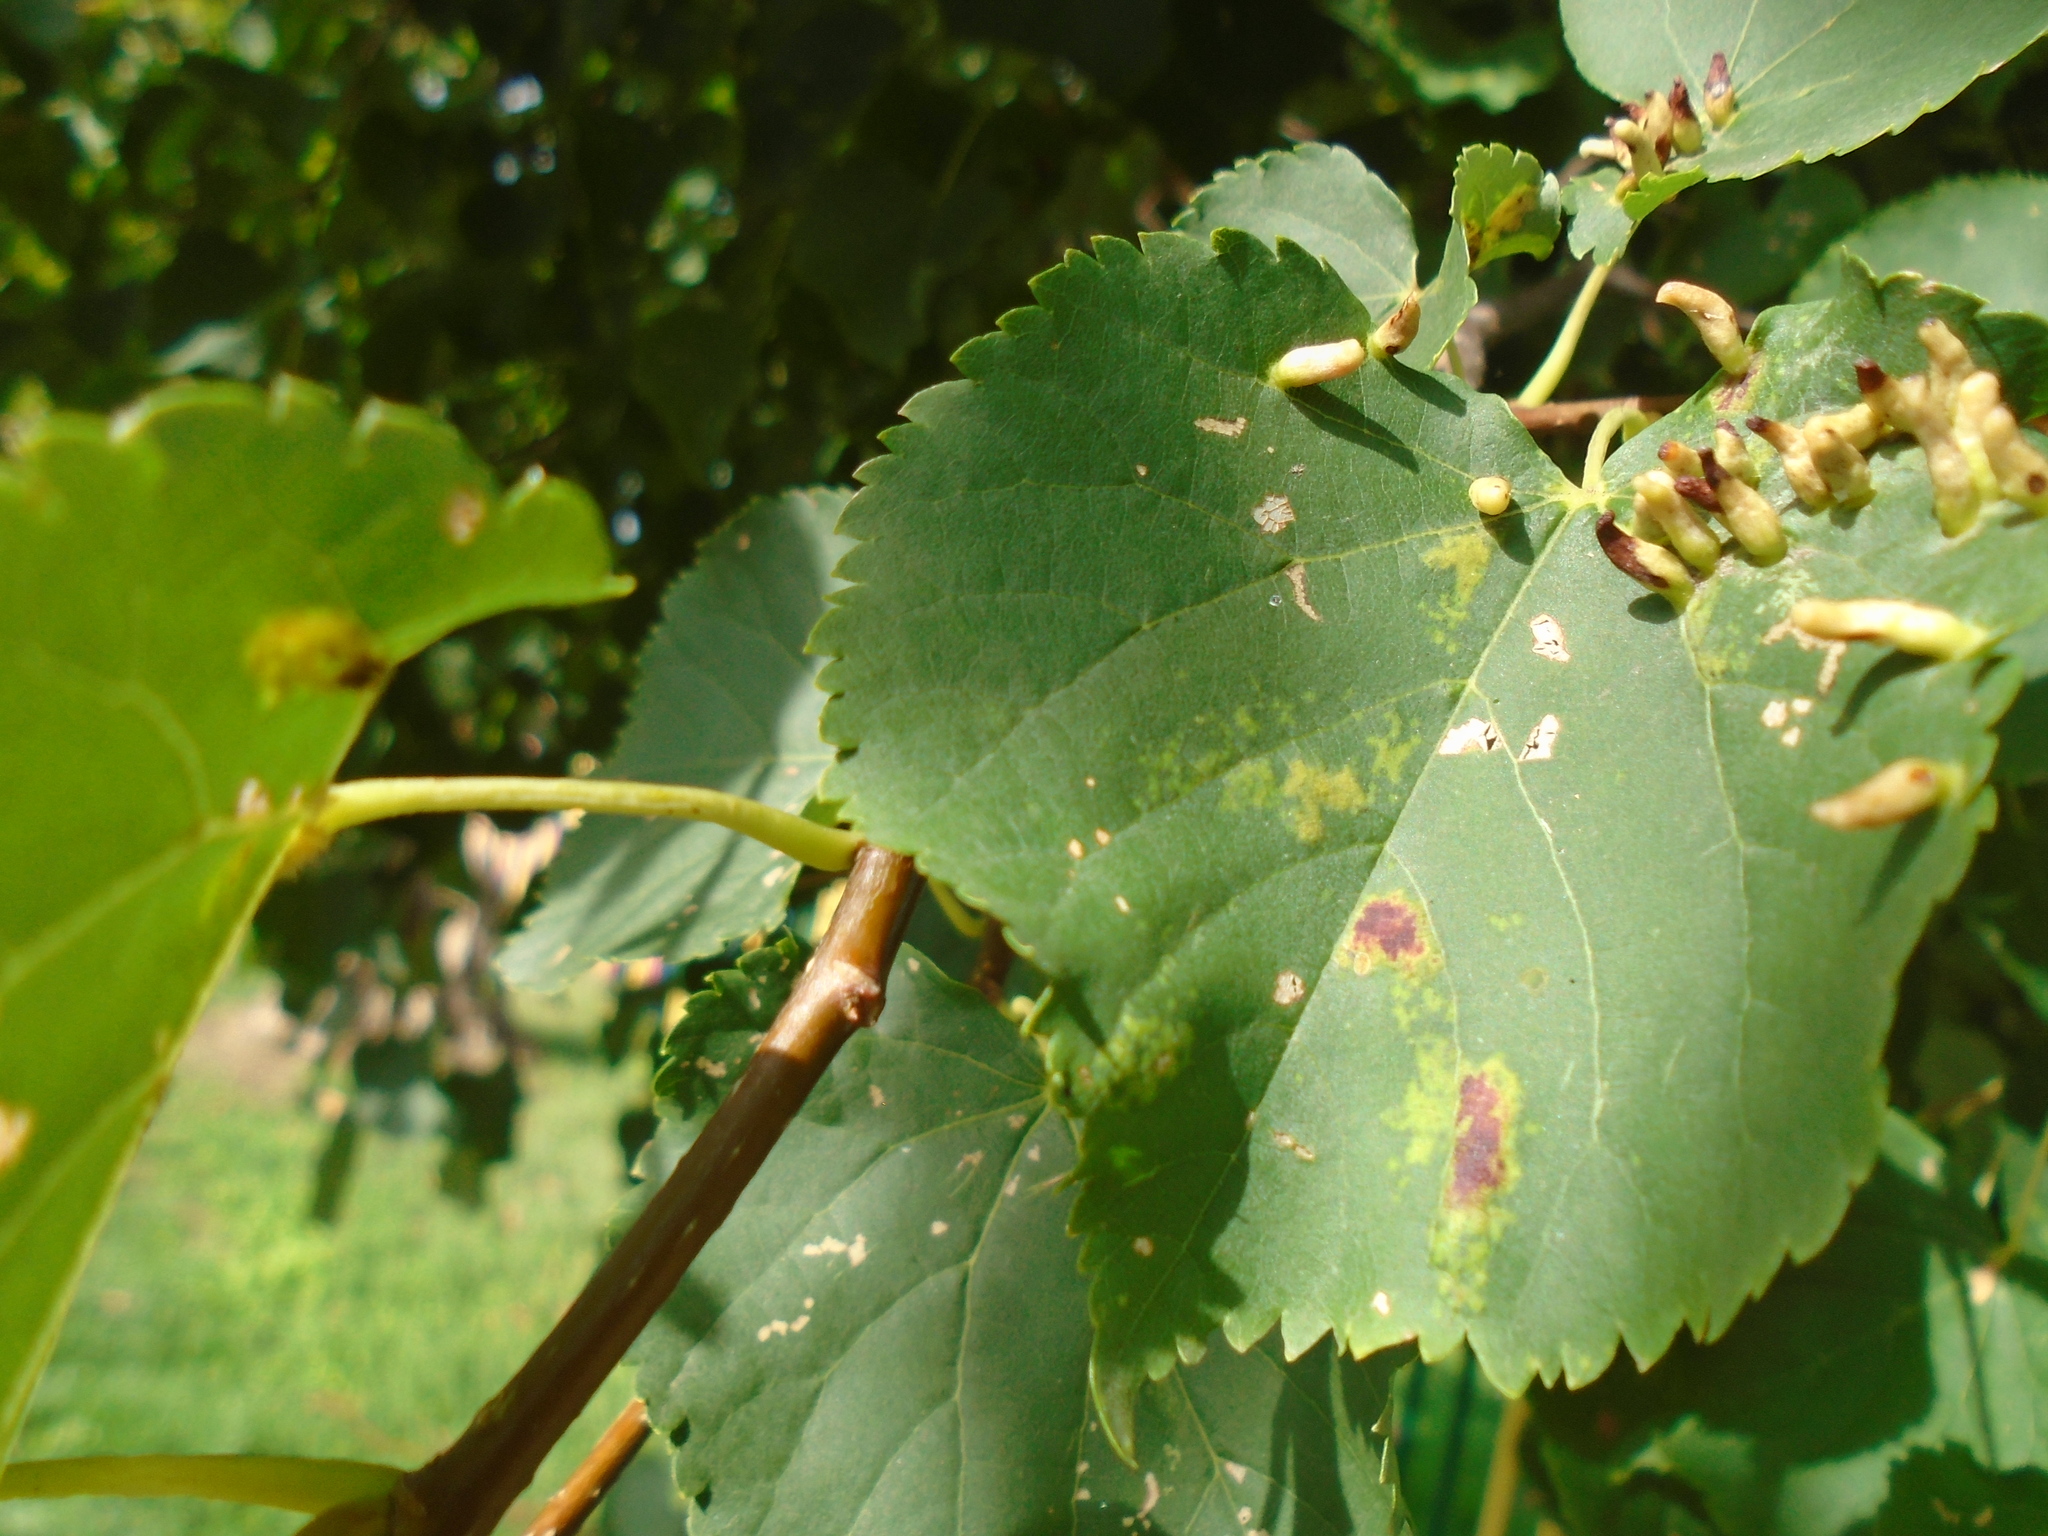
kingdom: Animalia
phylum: Arthropoda
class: Arachnida
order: Trombidiformes
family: Eriophyidae
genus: Eriophyes
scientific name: Eriophyes tiliae
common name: Red nail gall mite
